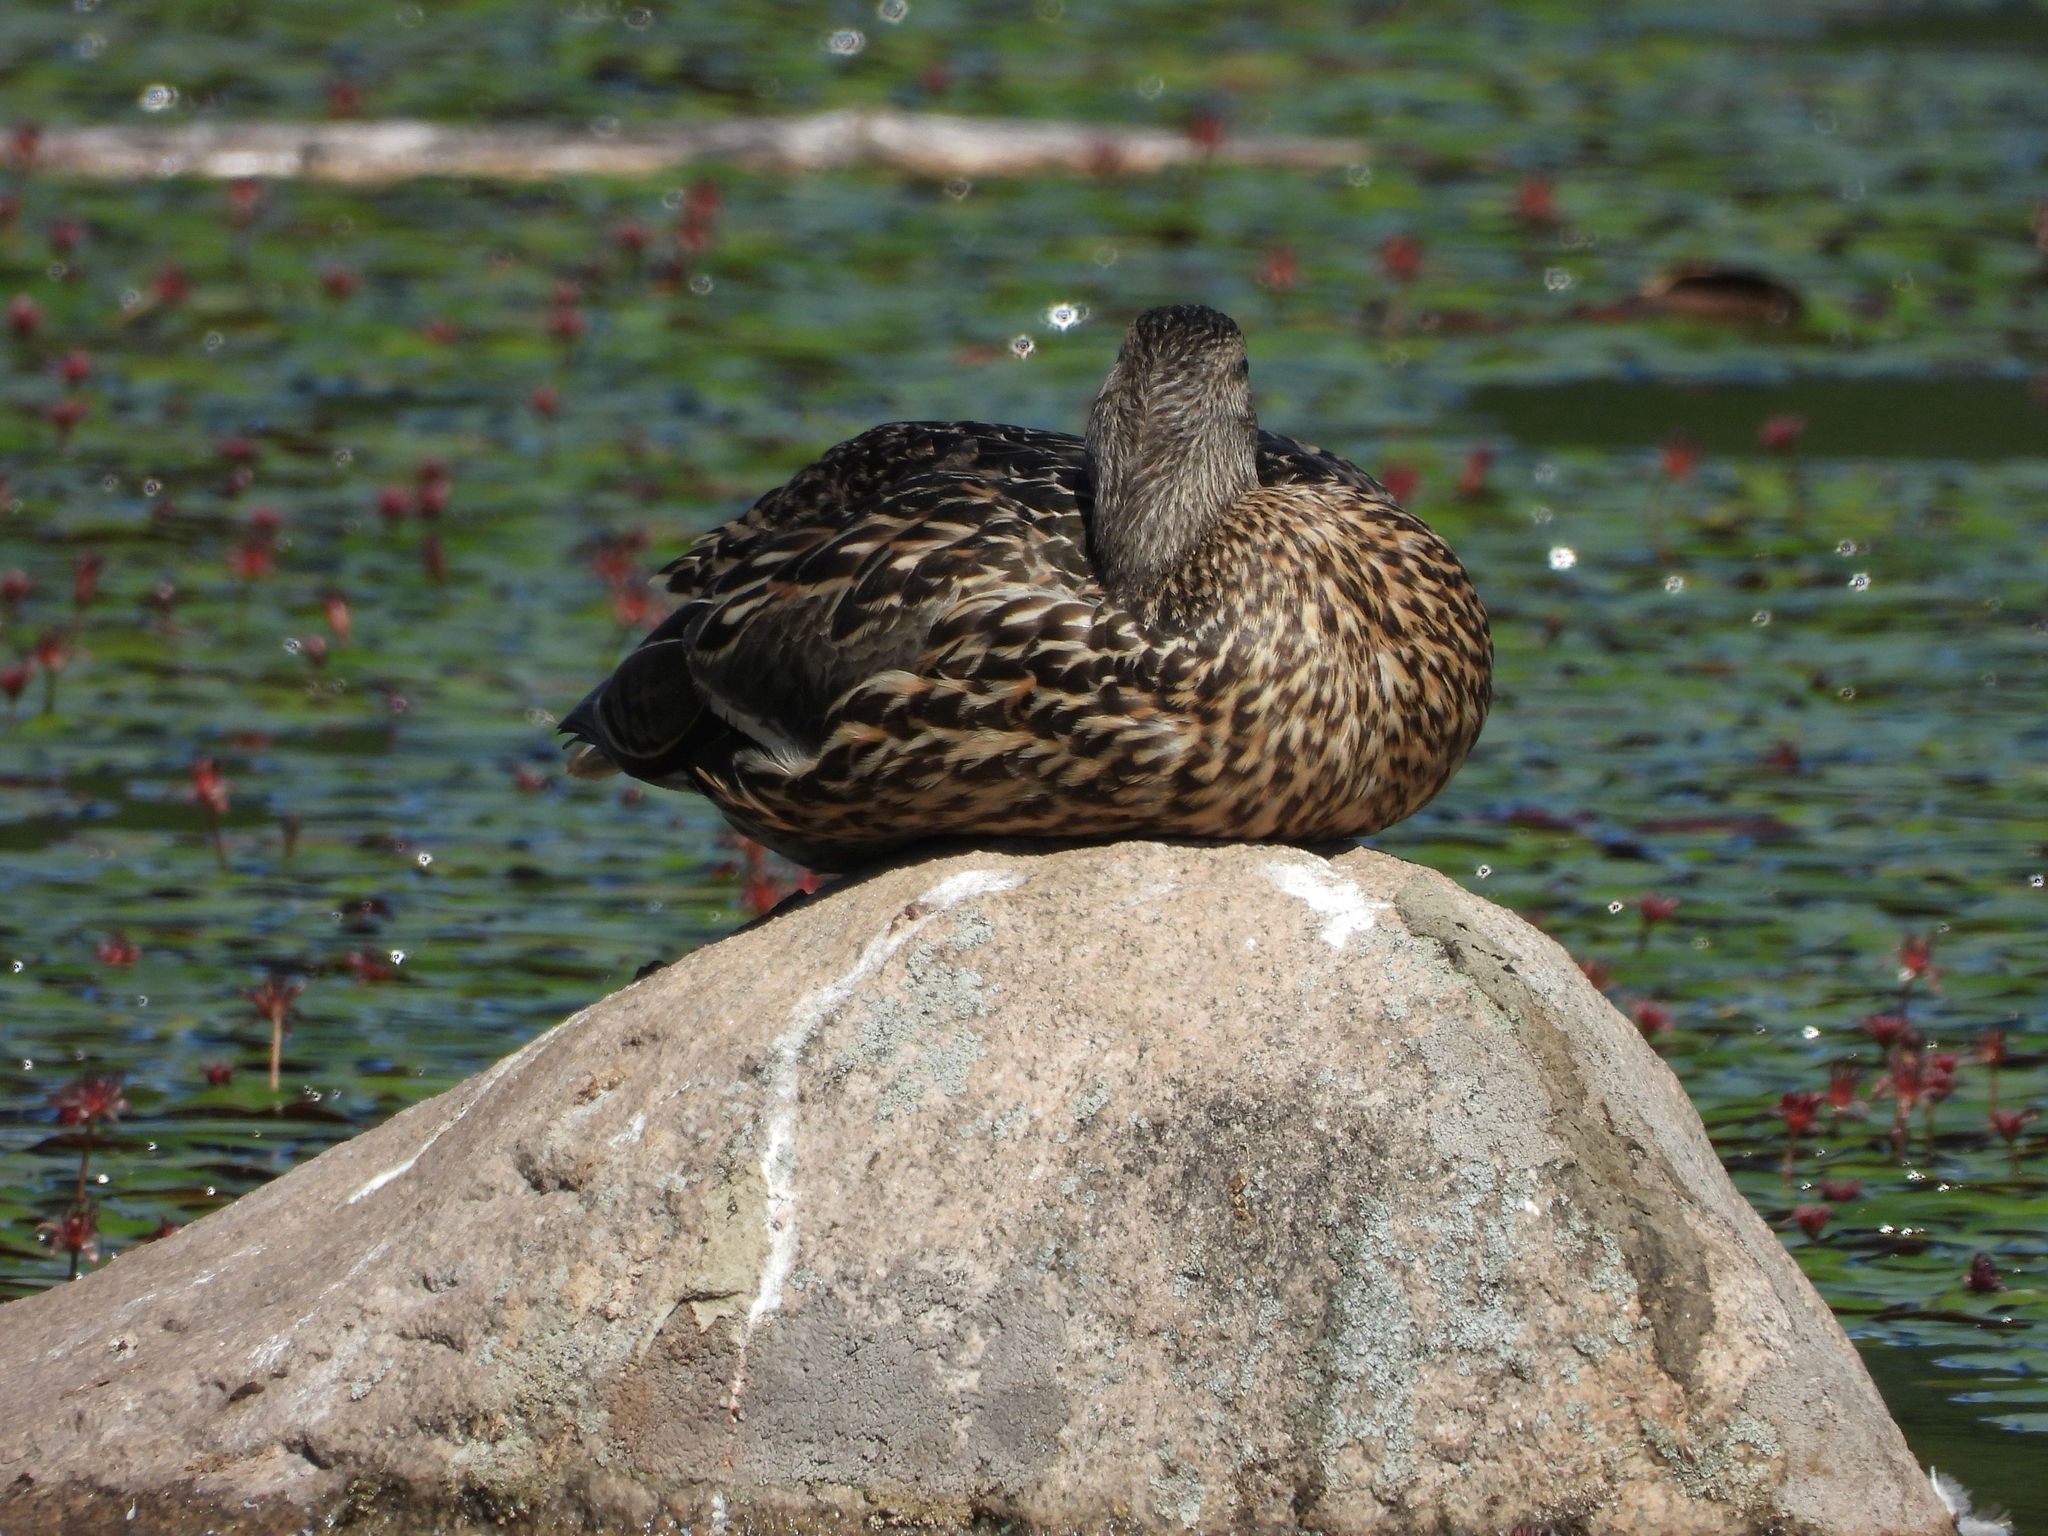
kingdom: Animalia
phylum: Chordata
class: Aves
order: Anseriformes
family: Anatidae
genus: Anas
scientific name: Anas platyrhynchos
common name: Mallard
